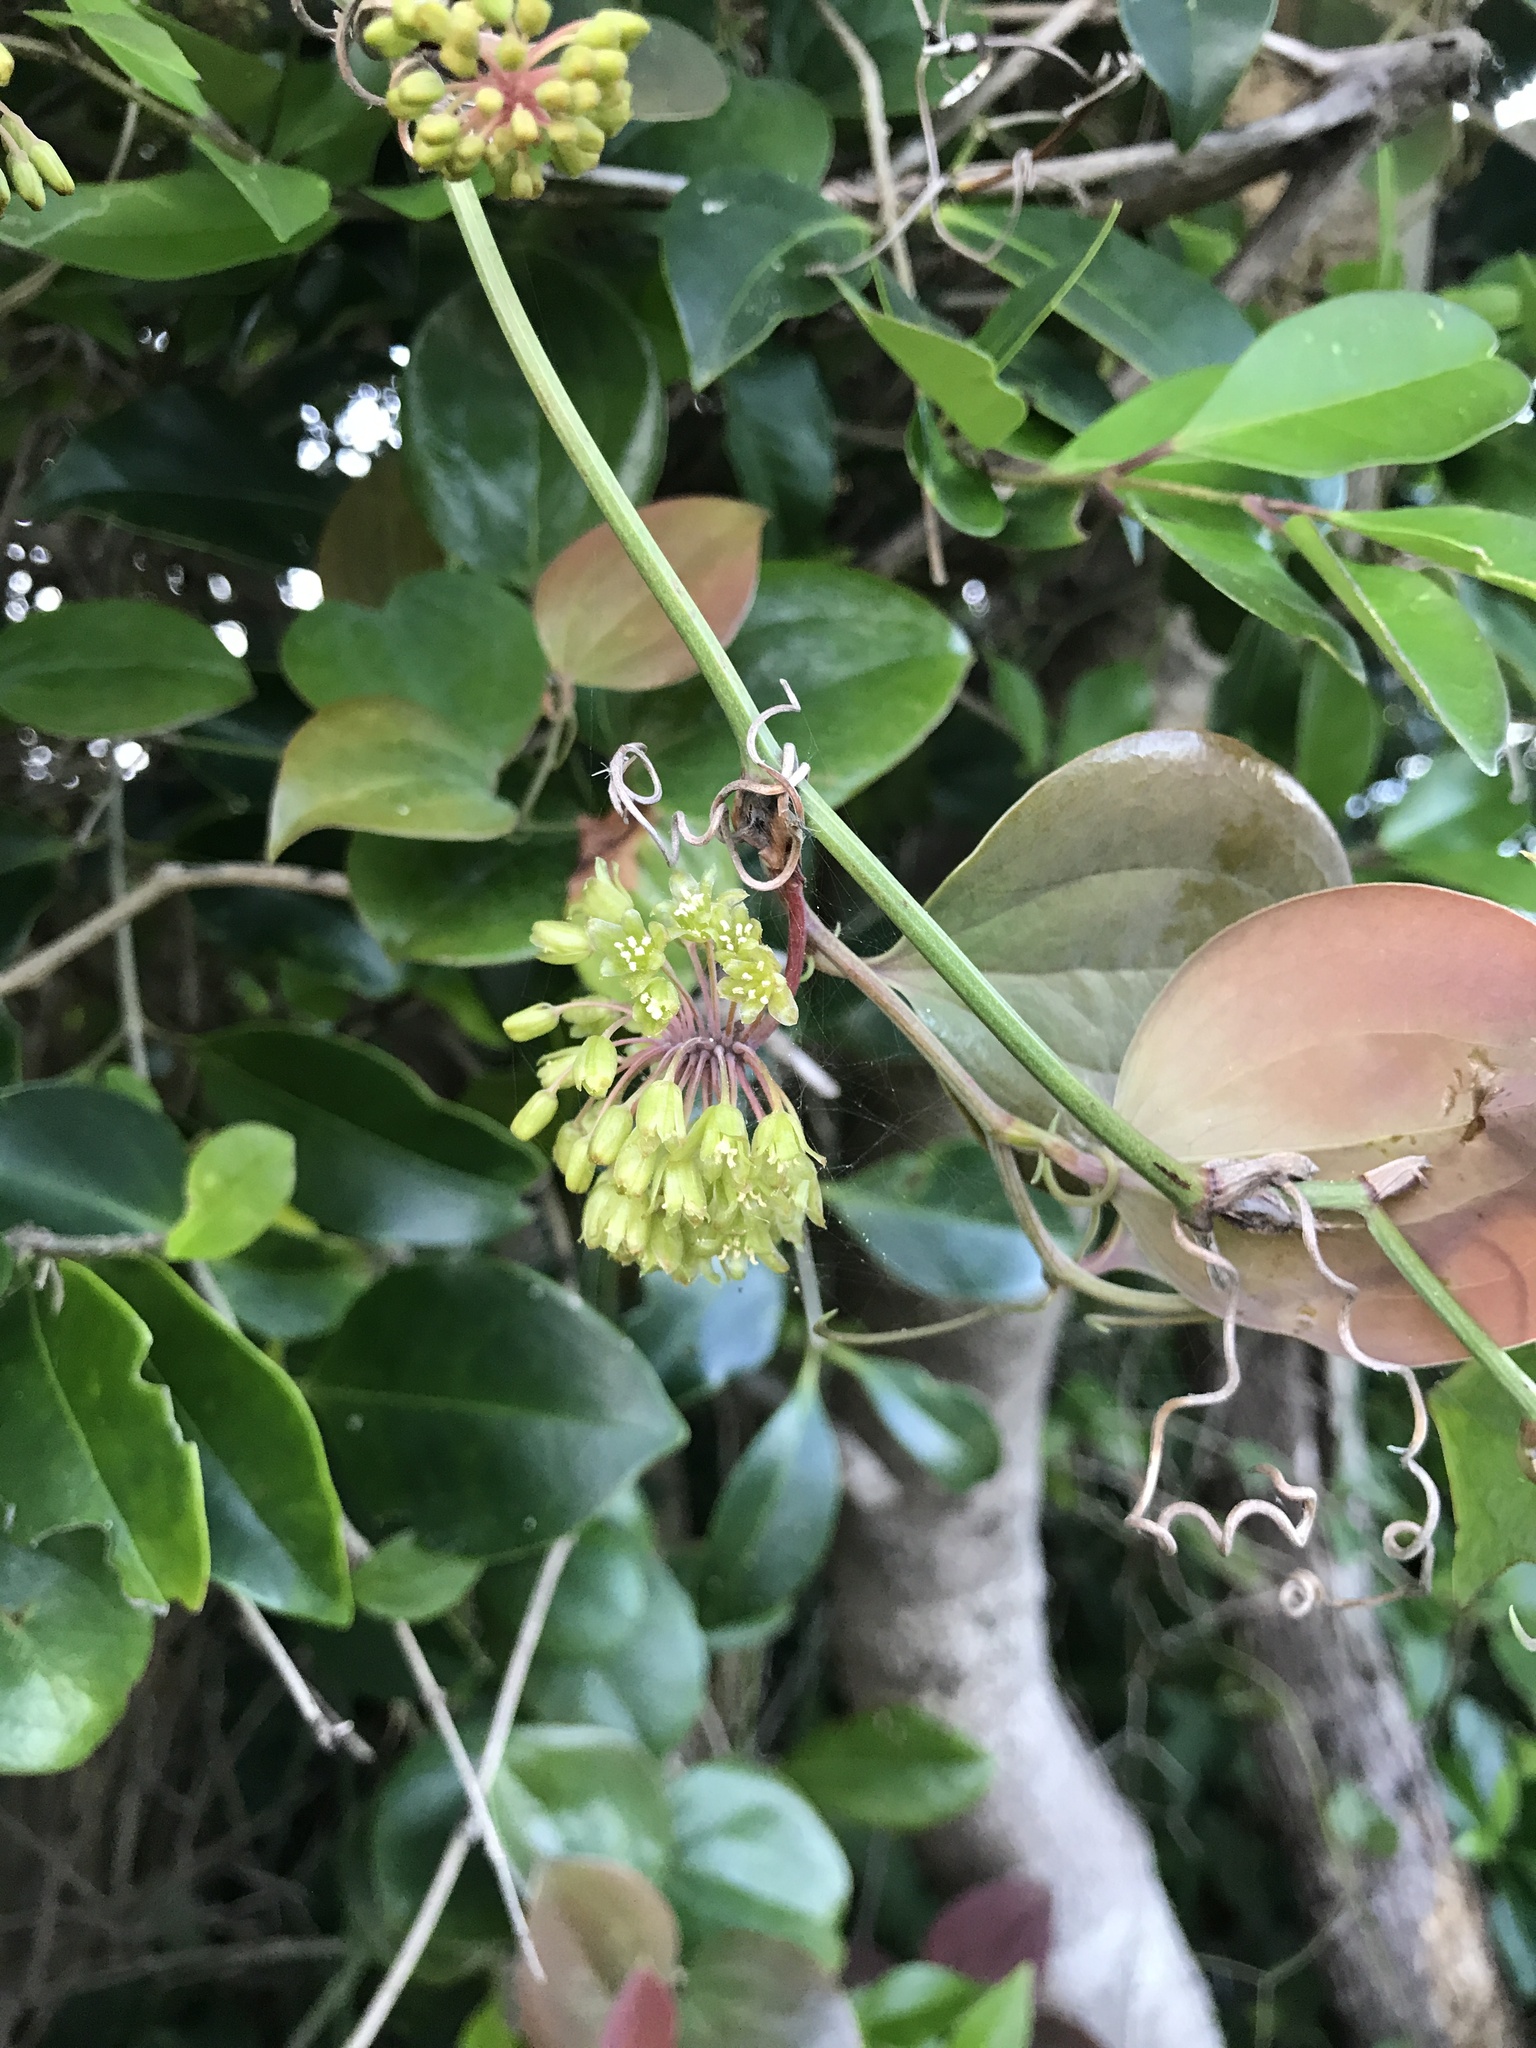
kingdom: Plantae
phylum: Tracheophyta
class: Liliopsida
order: Liliales
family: Smilacaceae
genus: Smilax
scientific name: Smilax sebeana
